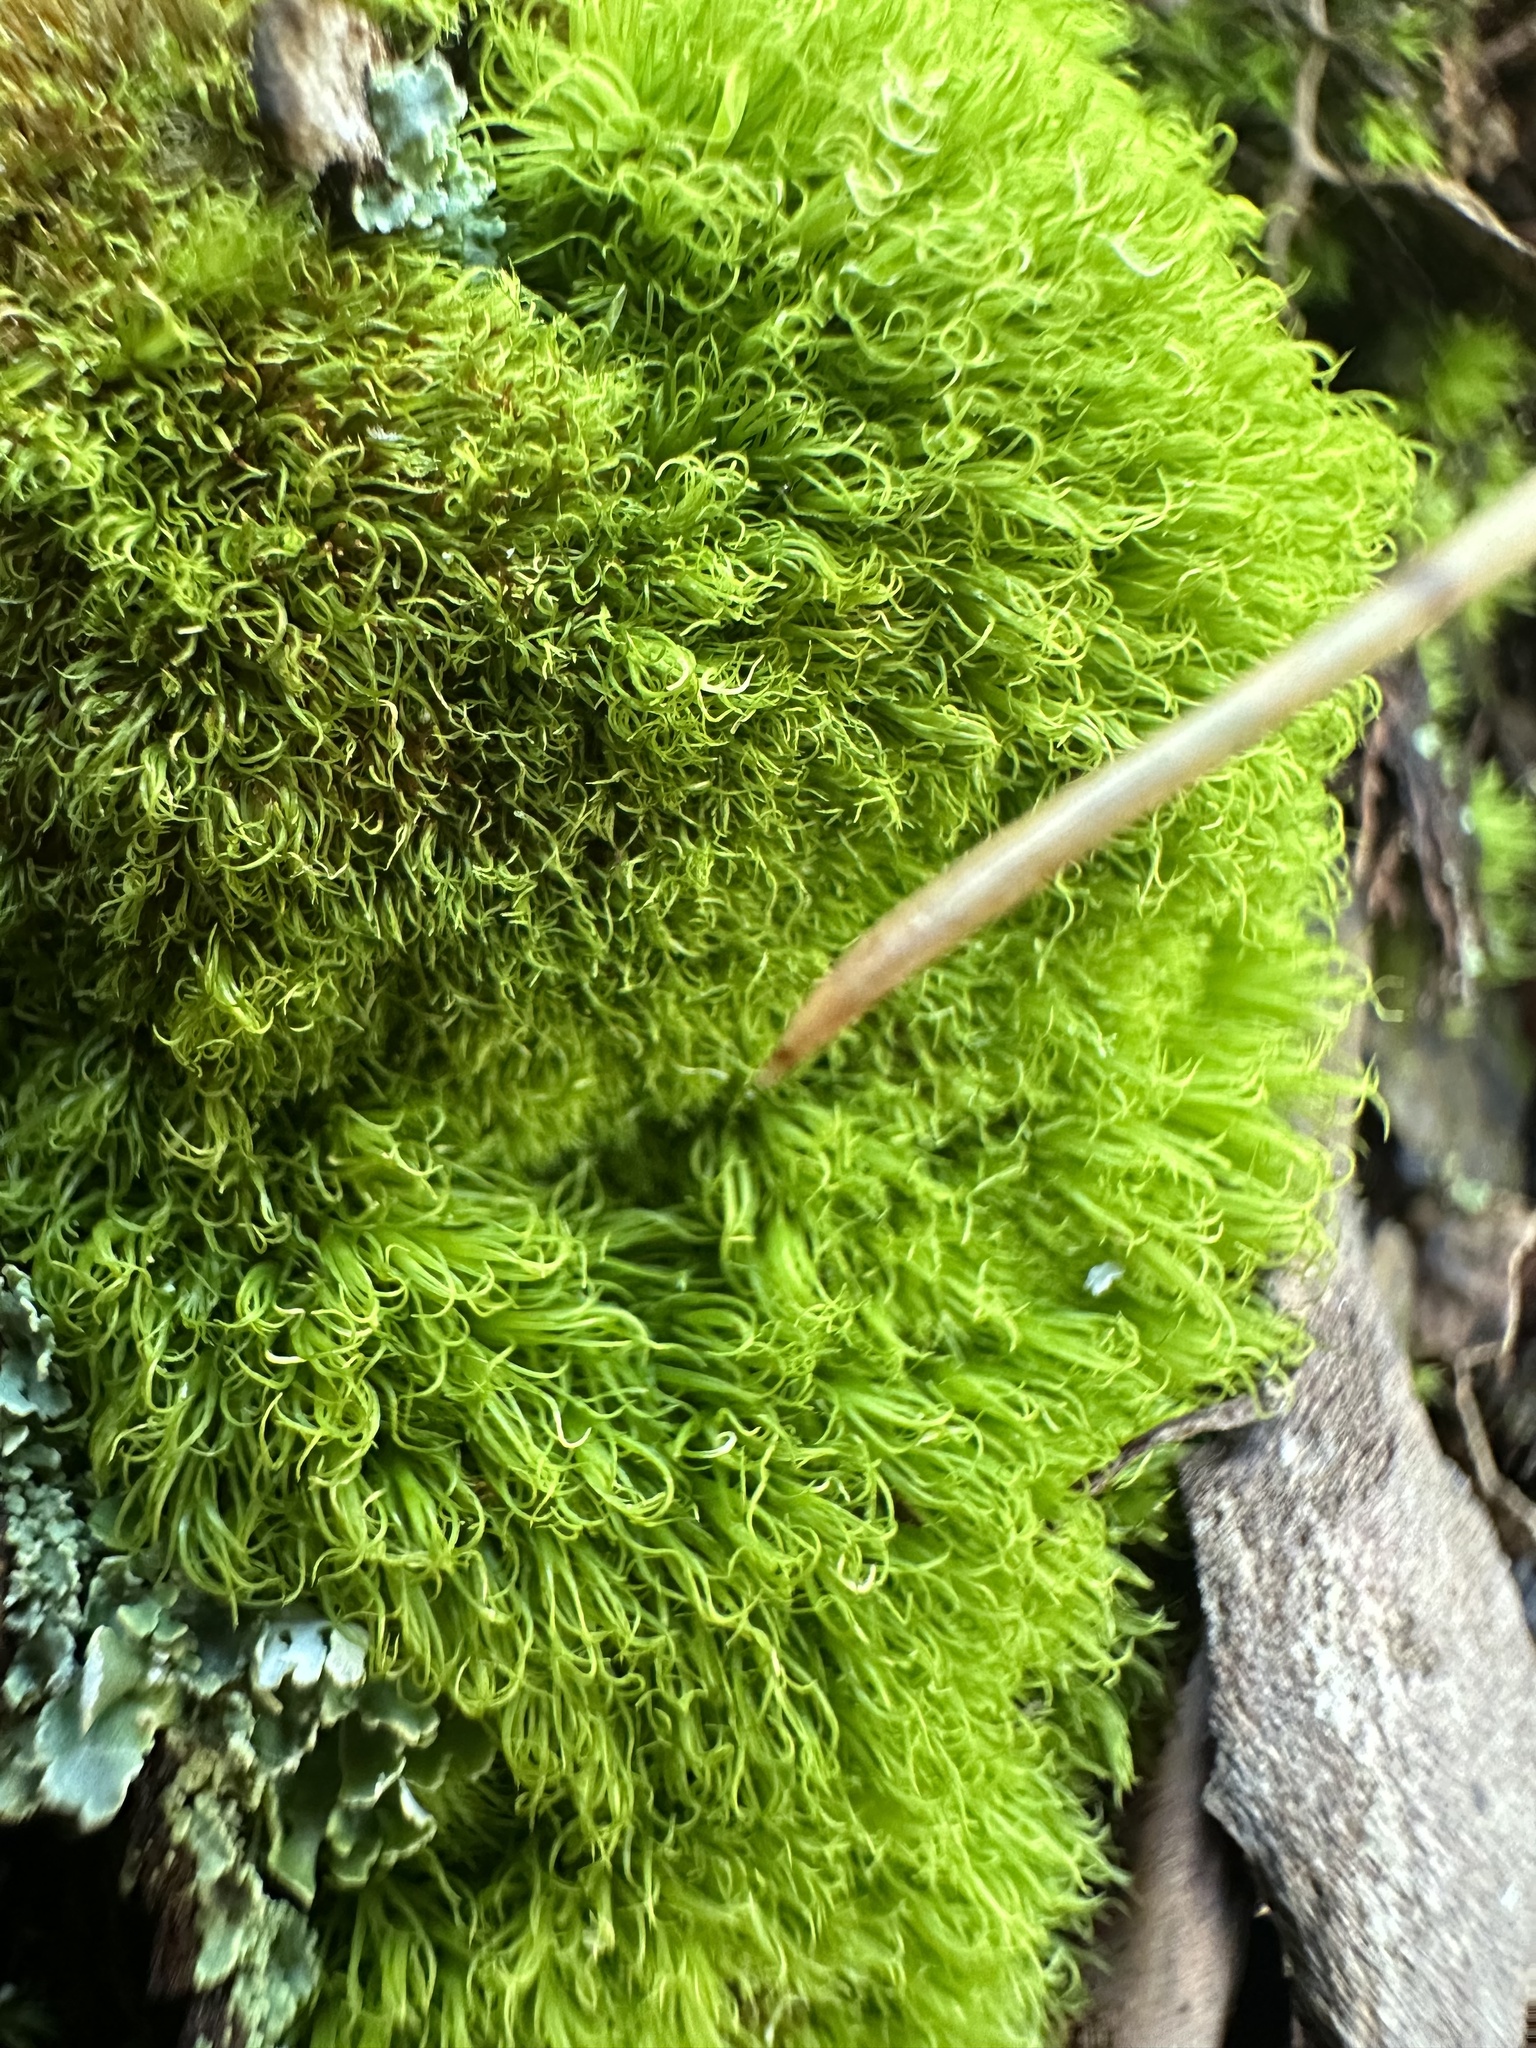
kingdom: Plantae
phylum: Bryophyta
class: Bryopsida
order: Dicranales
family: Dicranaceae
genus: Orthodicranum
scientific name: Orthodicranum montanum
